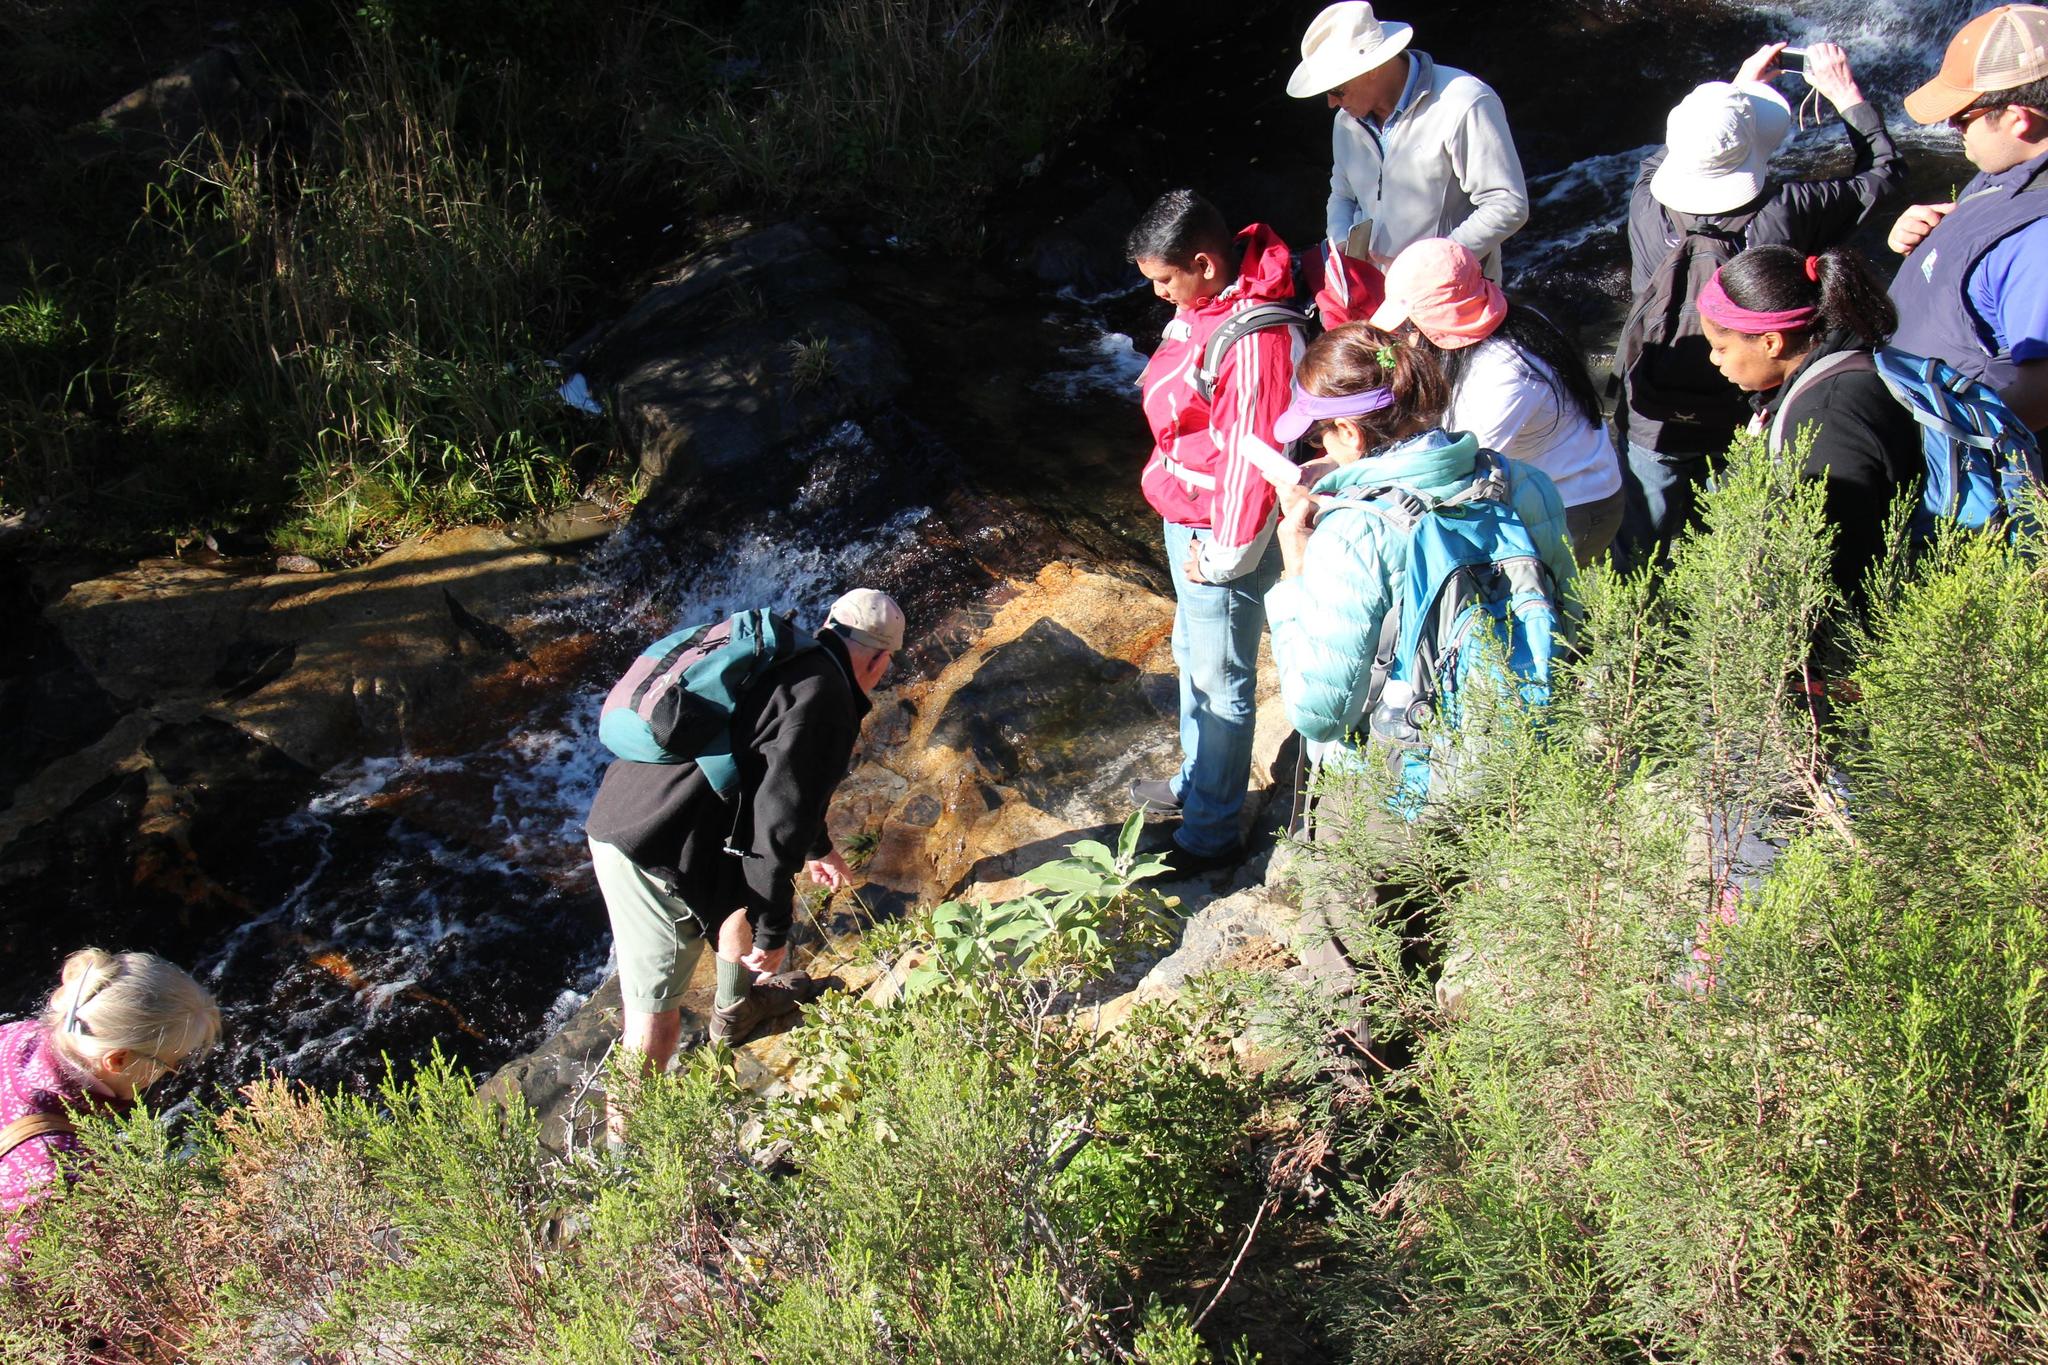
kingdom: Plantae
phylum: Tracheophyta
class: Magnoliopsida
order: Solanales
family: Solanaceae
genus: Solanum
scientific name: Solanum mauritianum
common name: Earleaf nightshade
